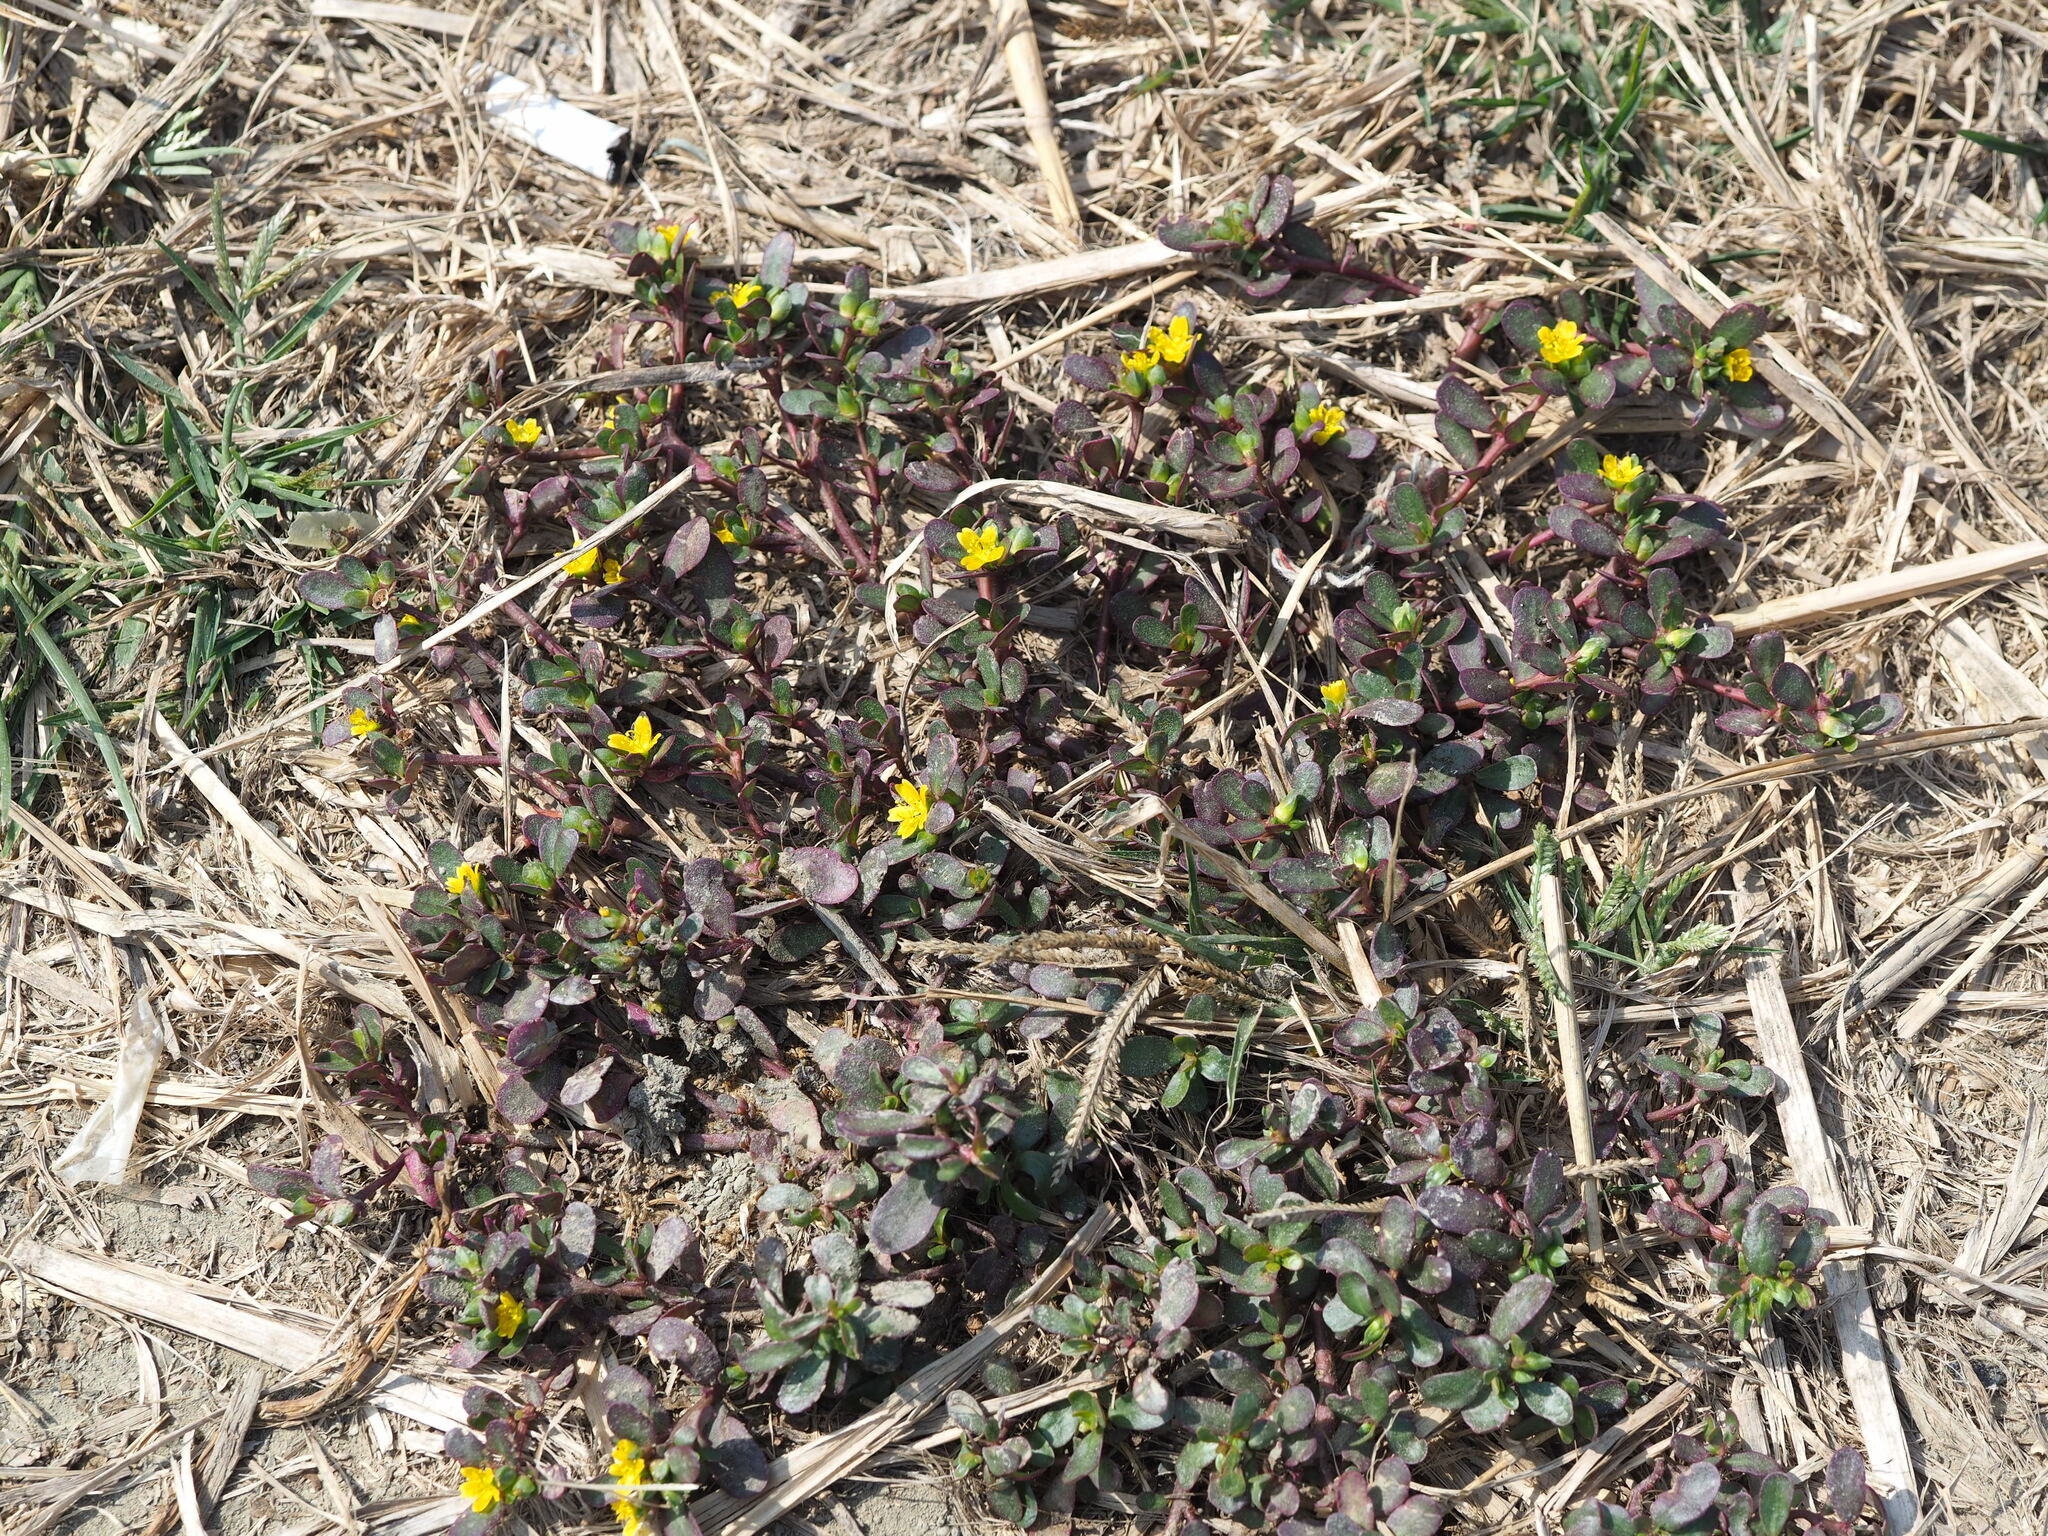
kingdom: Plantae
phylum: Tracheophyta
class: Magnoliopsida
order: Caryophyllales
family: Portulacaceae
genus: Portulaca
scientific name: Portulaca oleracea
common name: Common purslane
